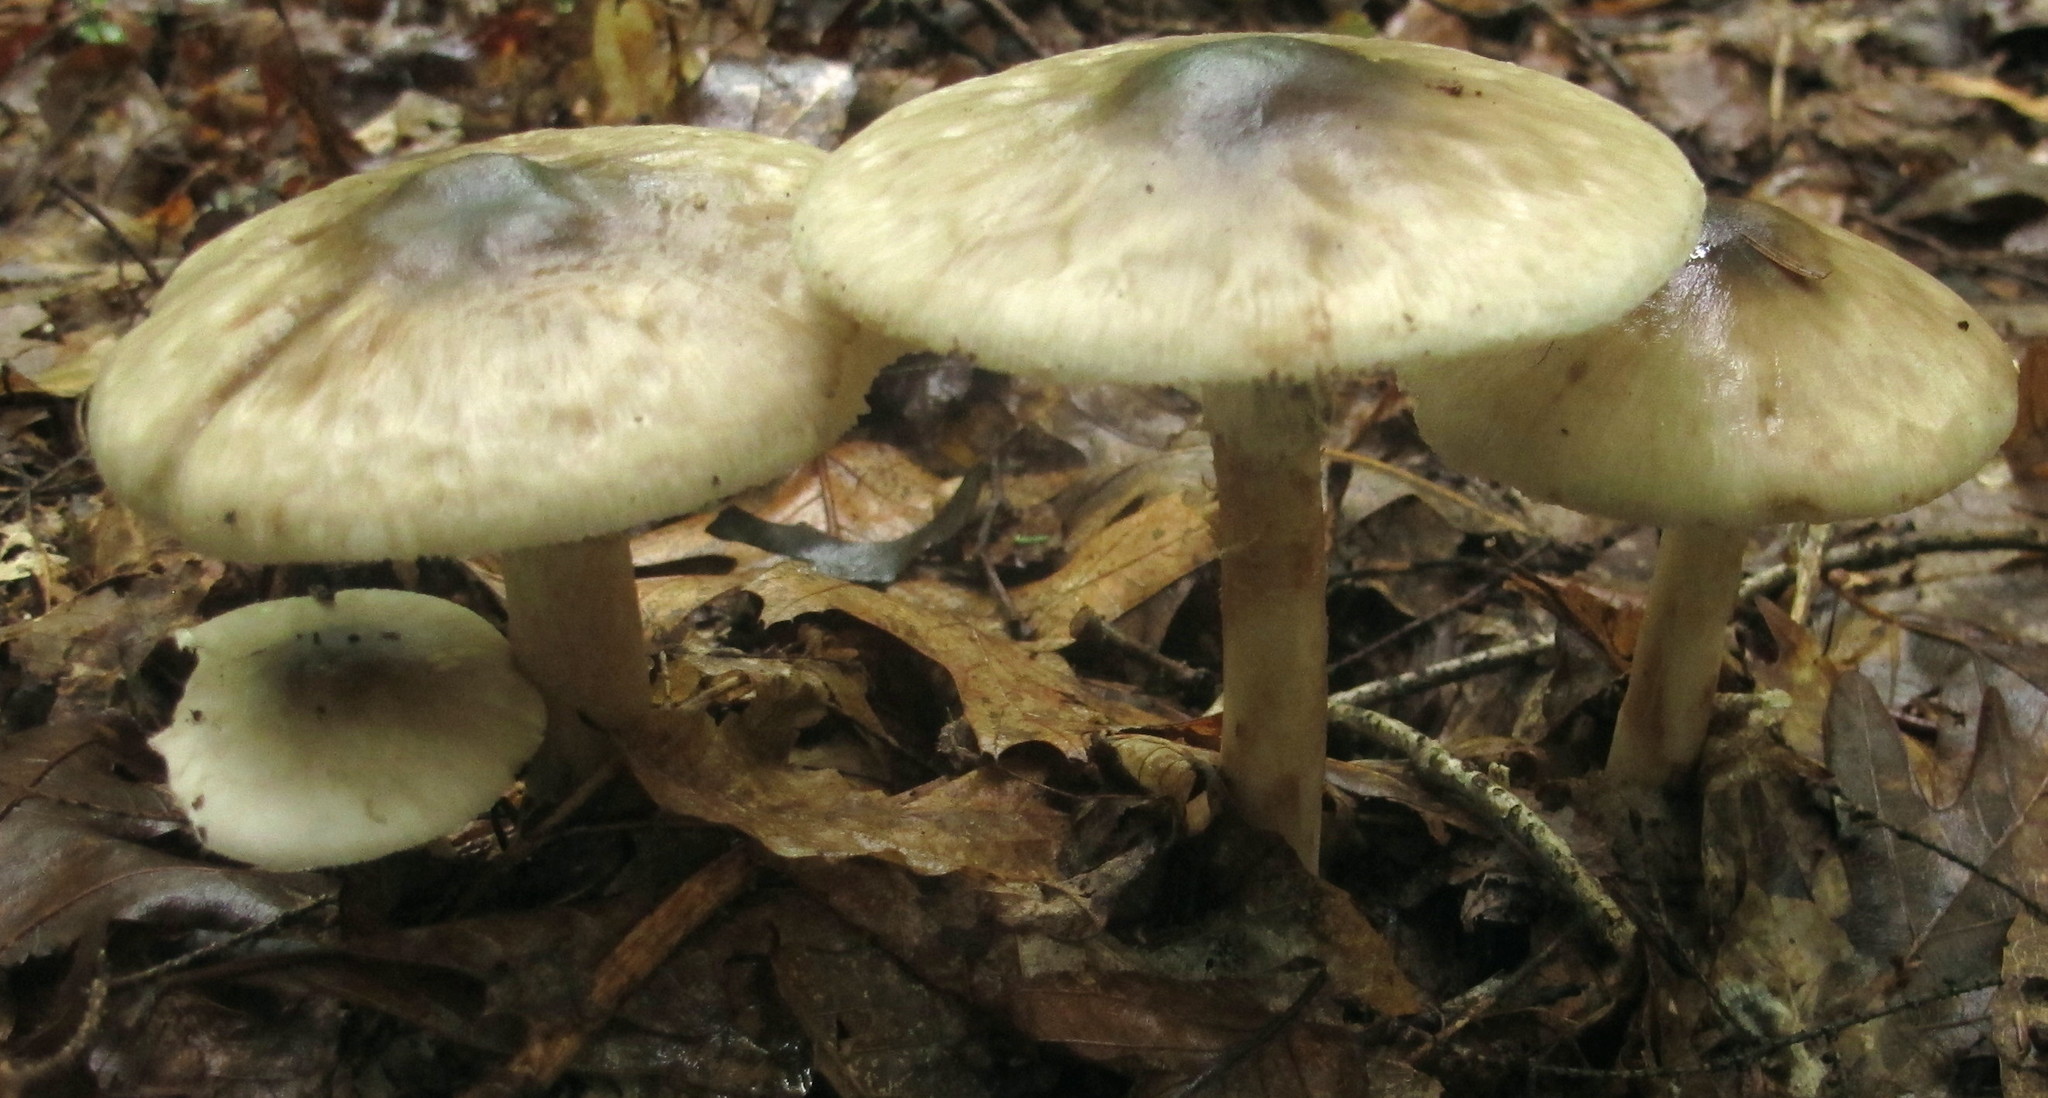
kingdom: Fungi
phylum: Basidiomycota
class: Agaricomycetes
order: Agaricales
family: Amanitaceae
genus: Amanita
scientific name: Amanita brunnescens
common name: Brown american star-footed amanita
